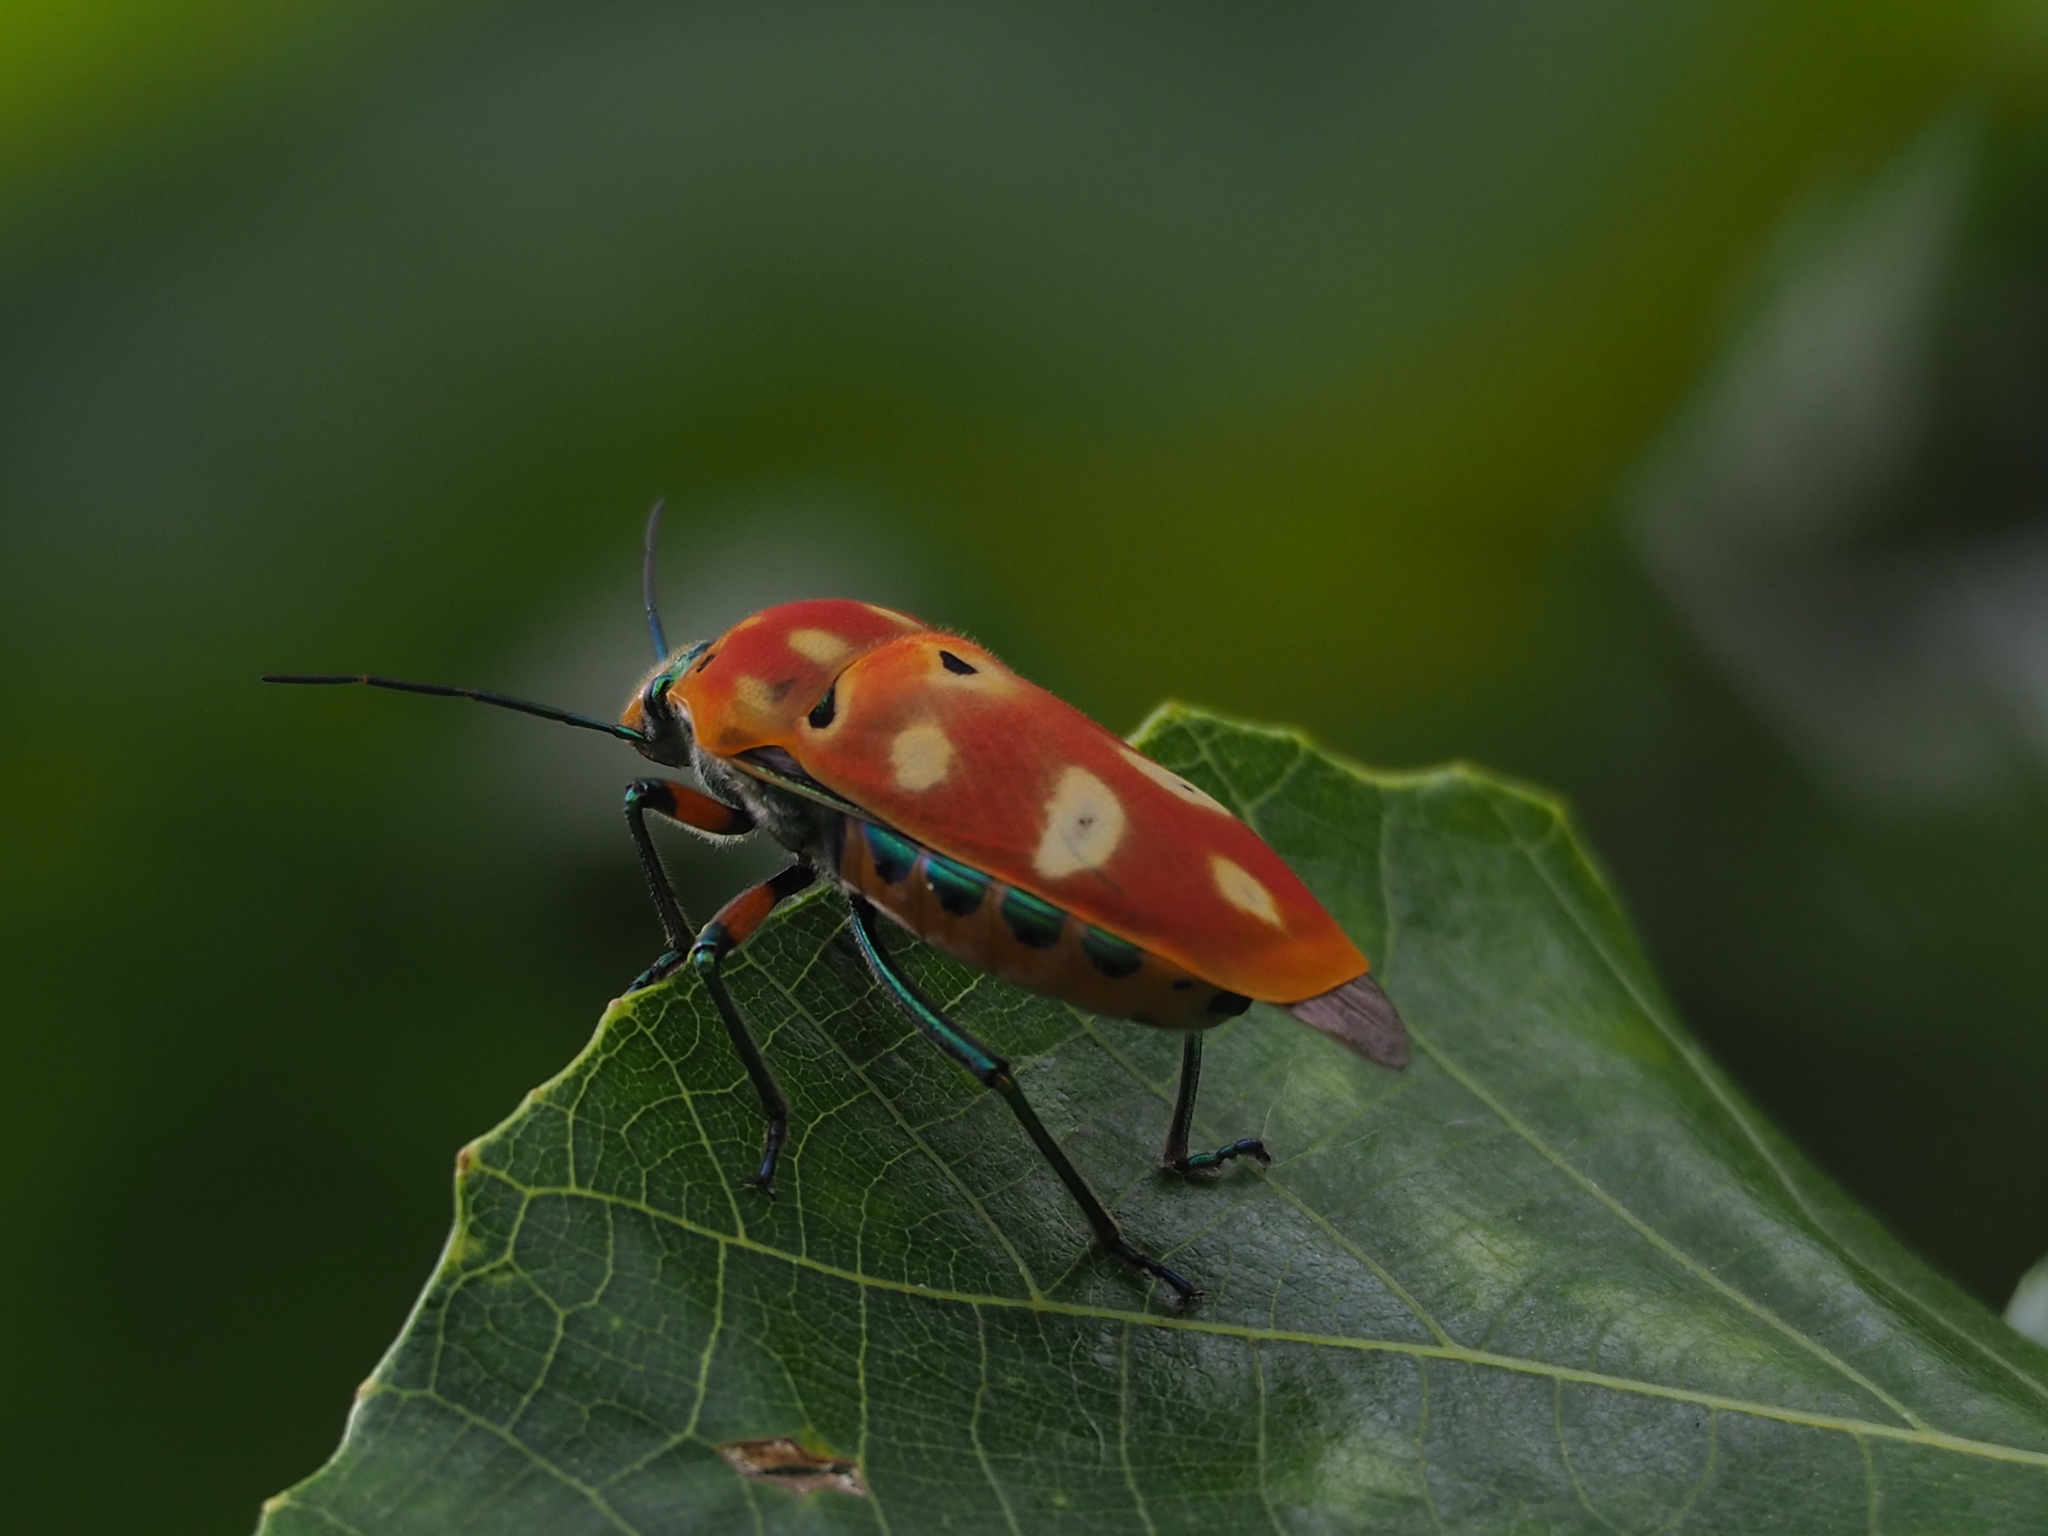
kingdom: Animalia
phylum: Arthropoda
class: Insecta
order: Hemiptera
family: Scutelleridae
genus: Cantao
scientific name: Cantao ocellatus
